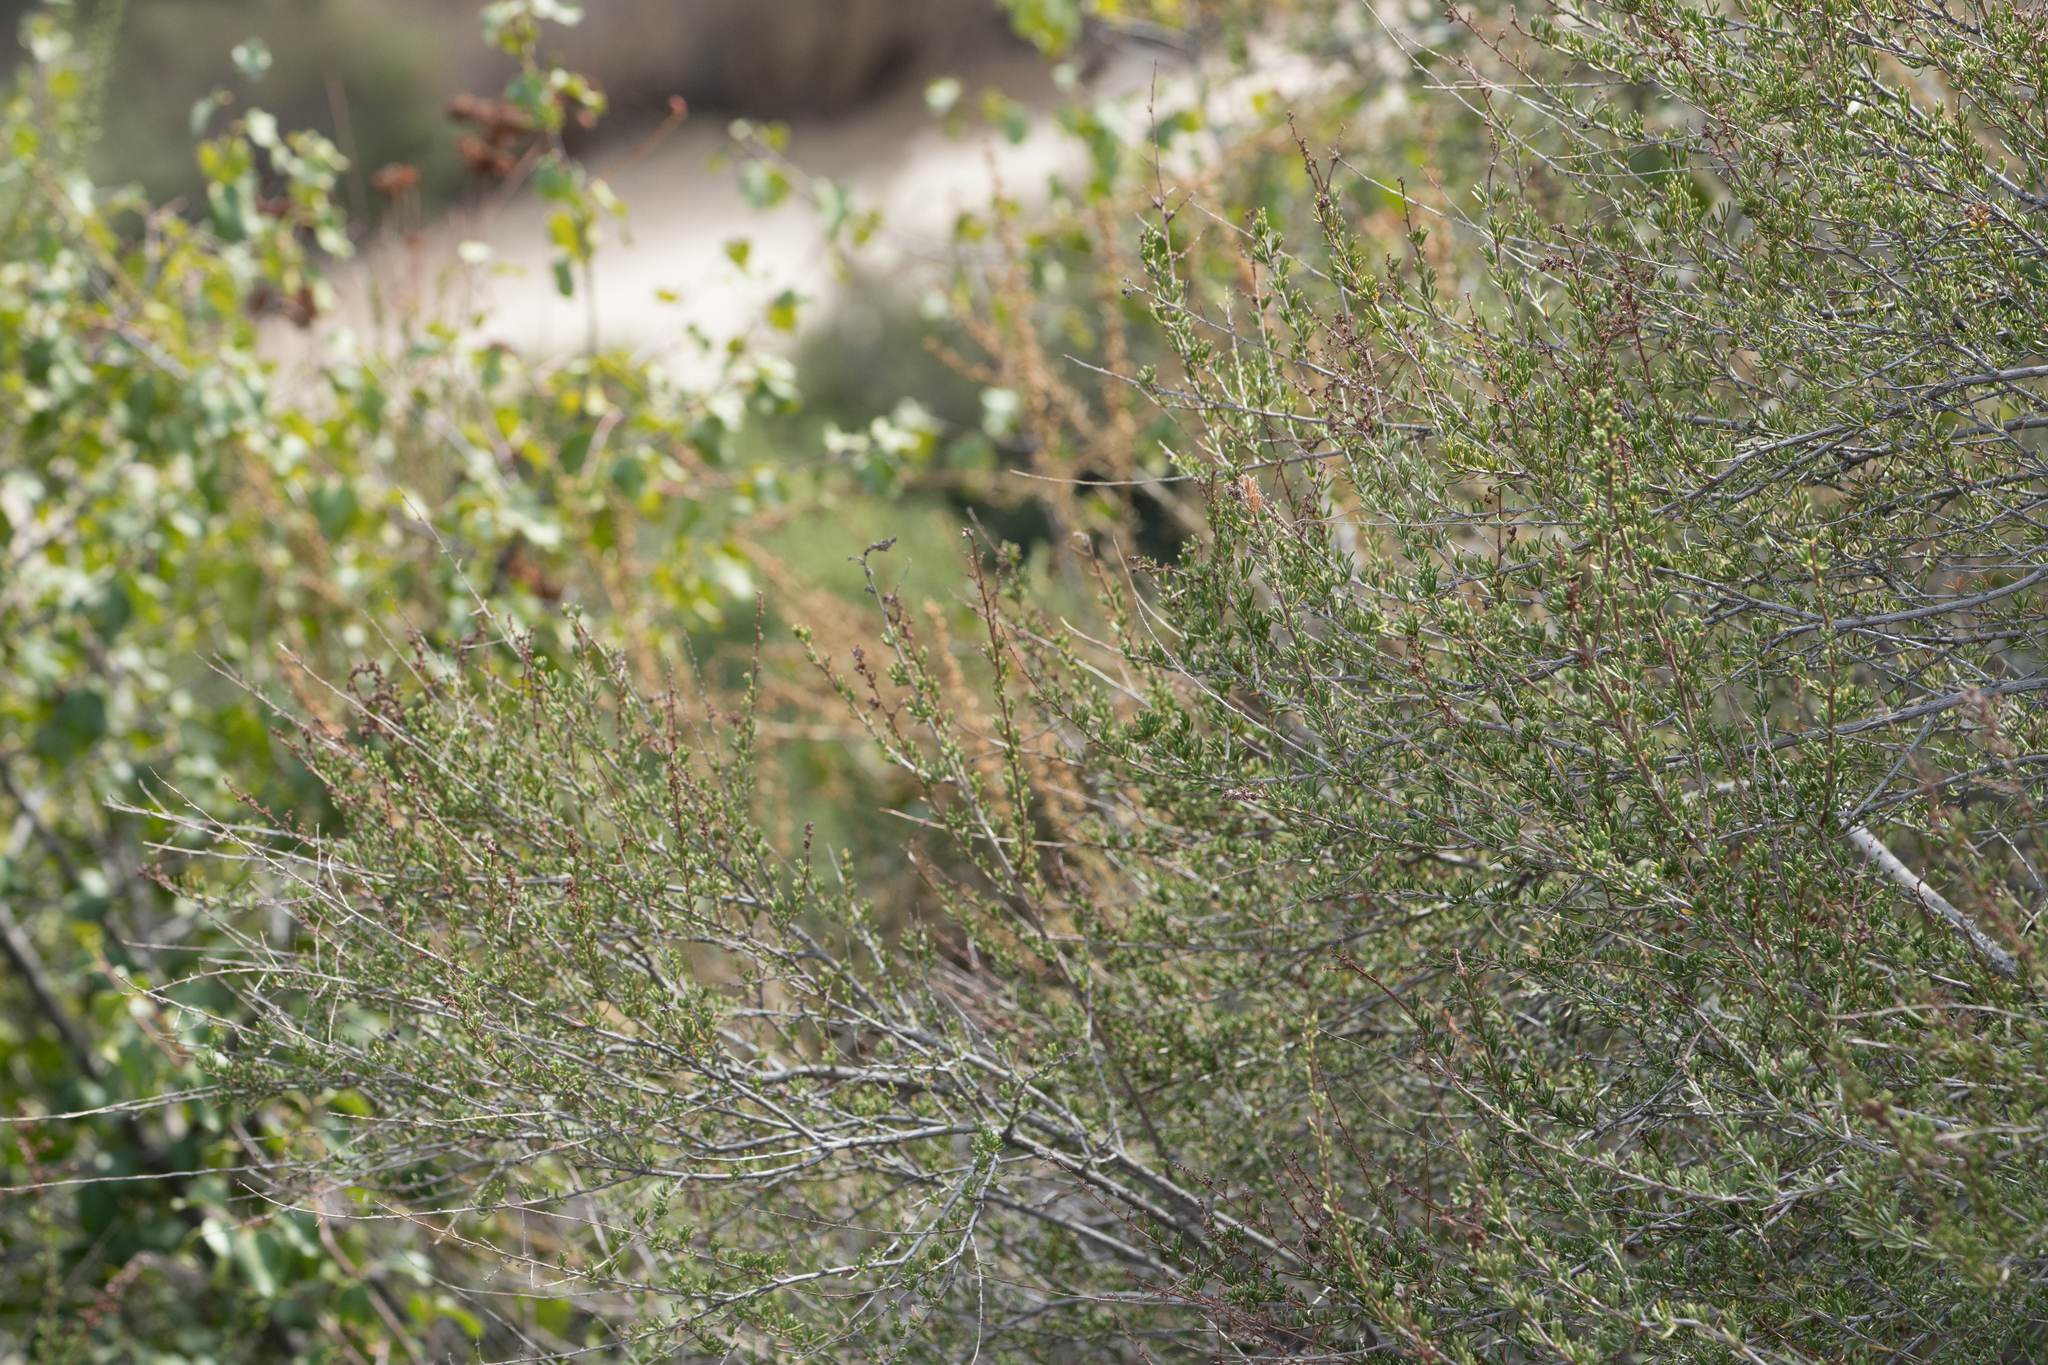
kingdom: Plantae
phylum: Tracheophyta
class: Magnoliopsida
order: Rosales
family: Rosaceae
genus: Adenostoma
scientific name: Adenostoma fasciculatum
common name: Chamise
